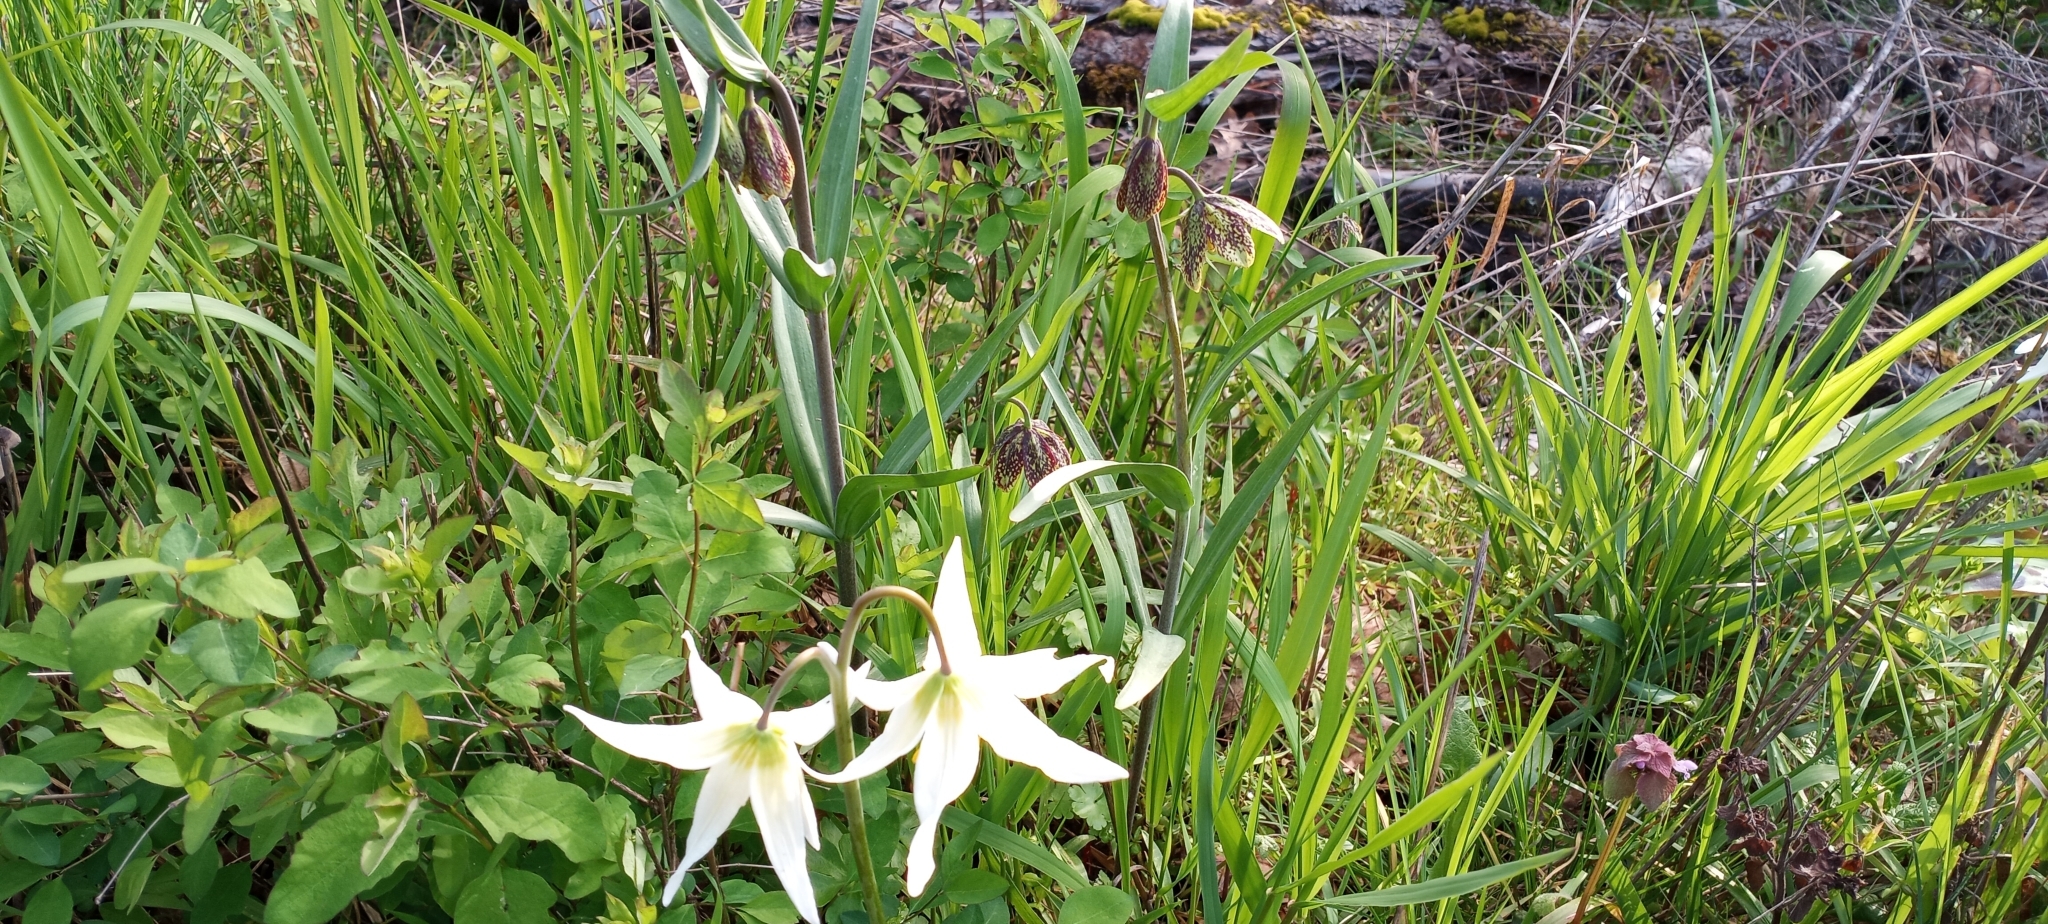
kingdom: Plantae
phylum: Tracheophyta
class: Liliopsida
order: Liliales
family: Liliaceae
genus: Fritillaria
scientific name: Fritillaria affinis
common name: Ojai fritillary
